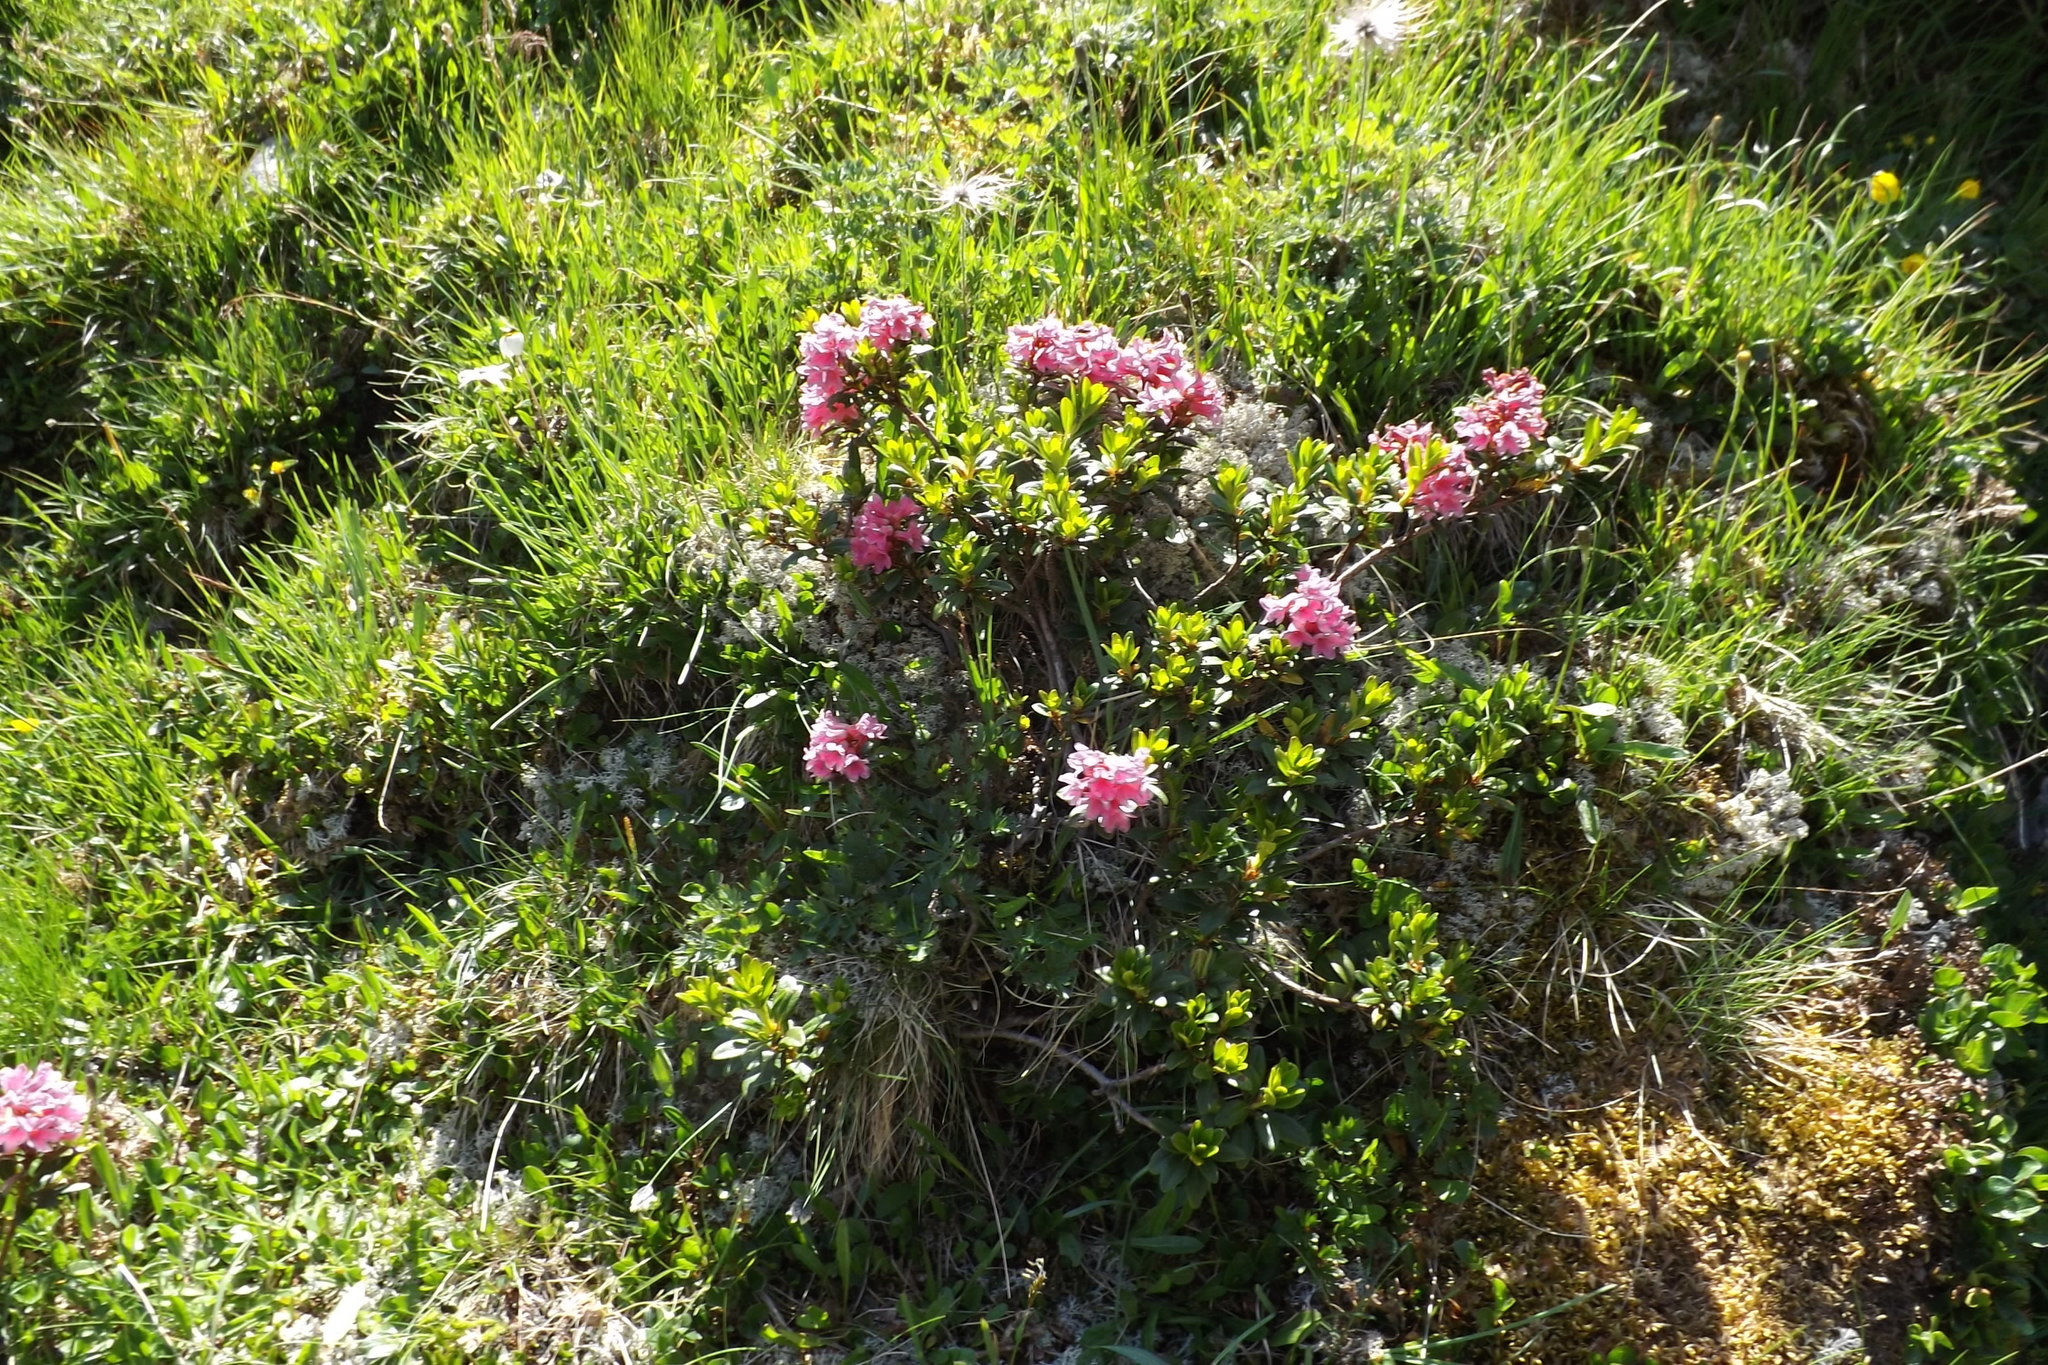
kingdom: Fungi
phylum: Ascomycota
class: Lecanoromycetes
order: Lecanorales
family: Cladoniaceae
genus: Cladonia
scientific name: Cladonia
